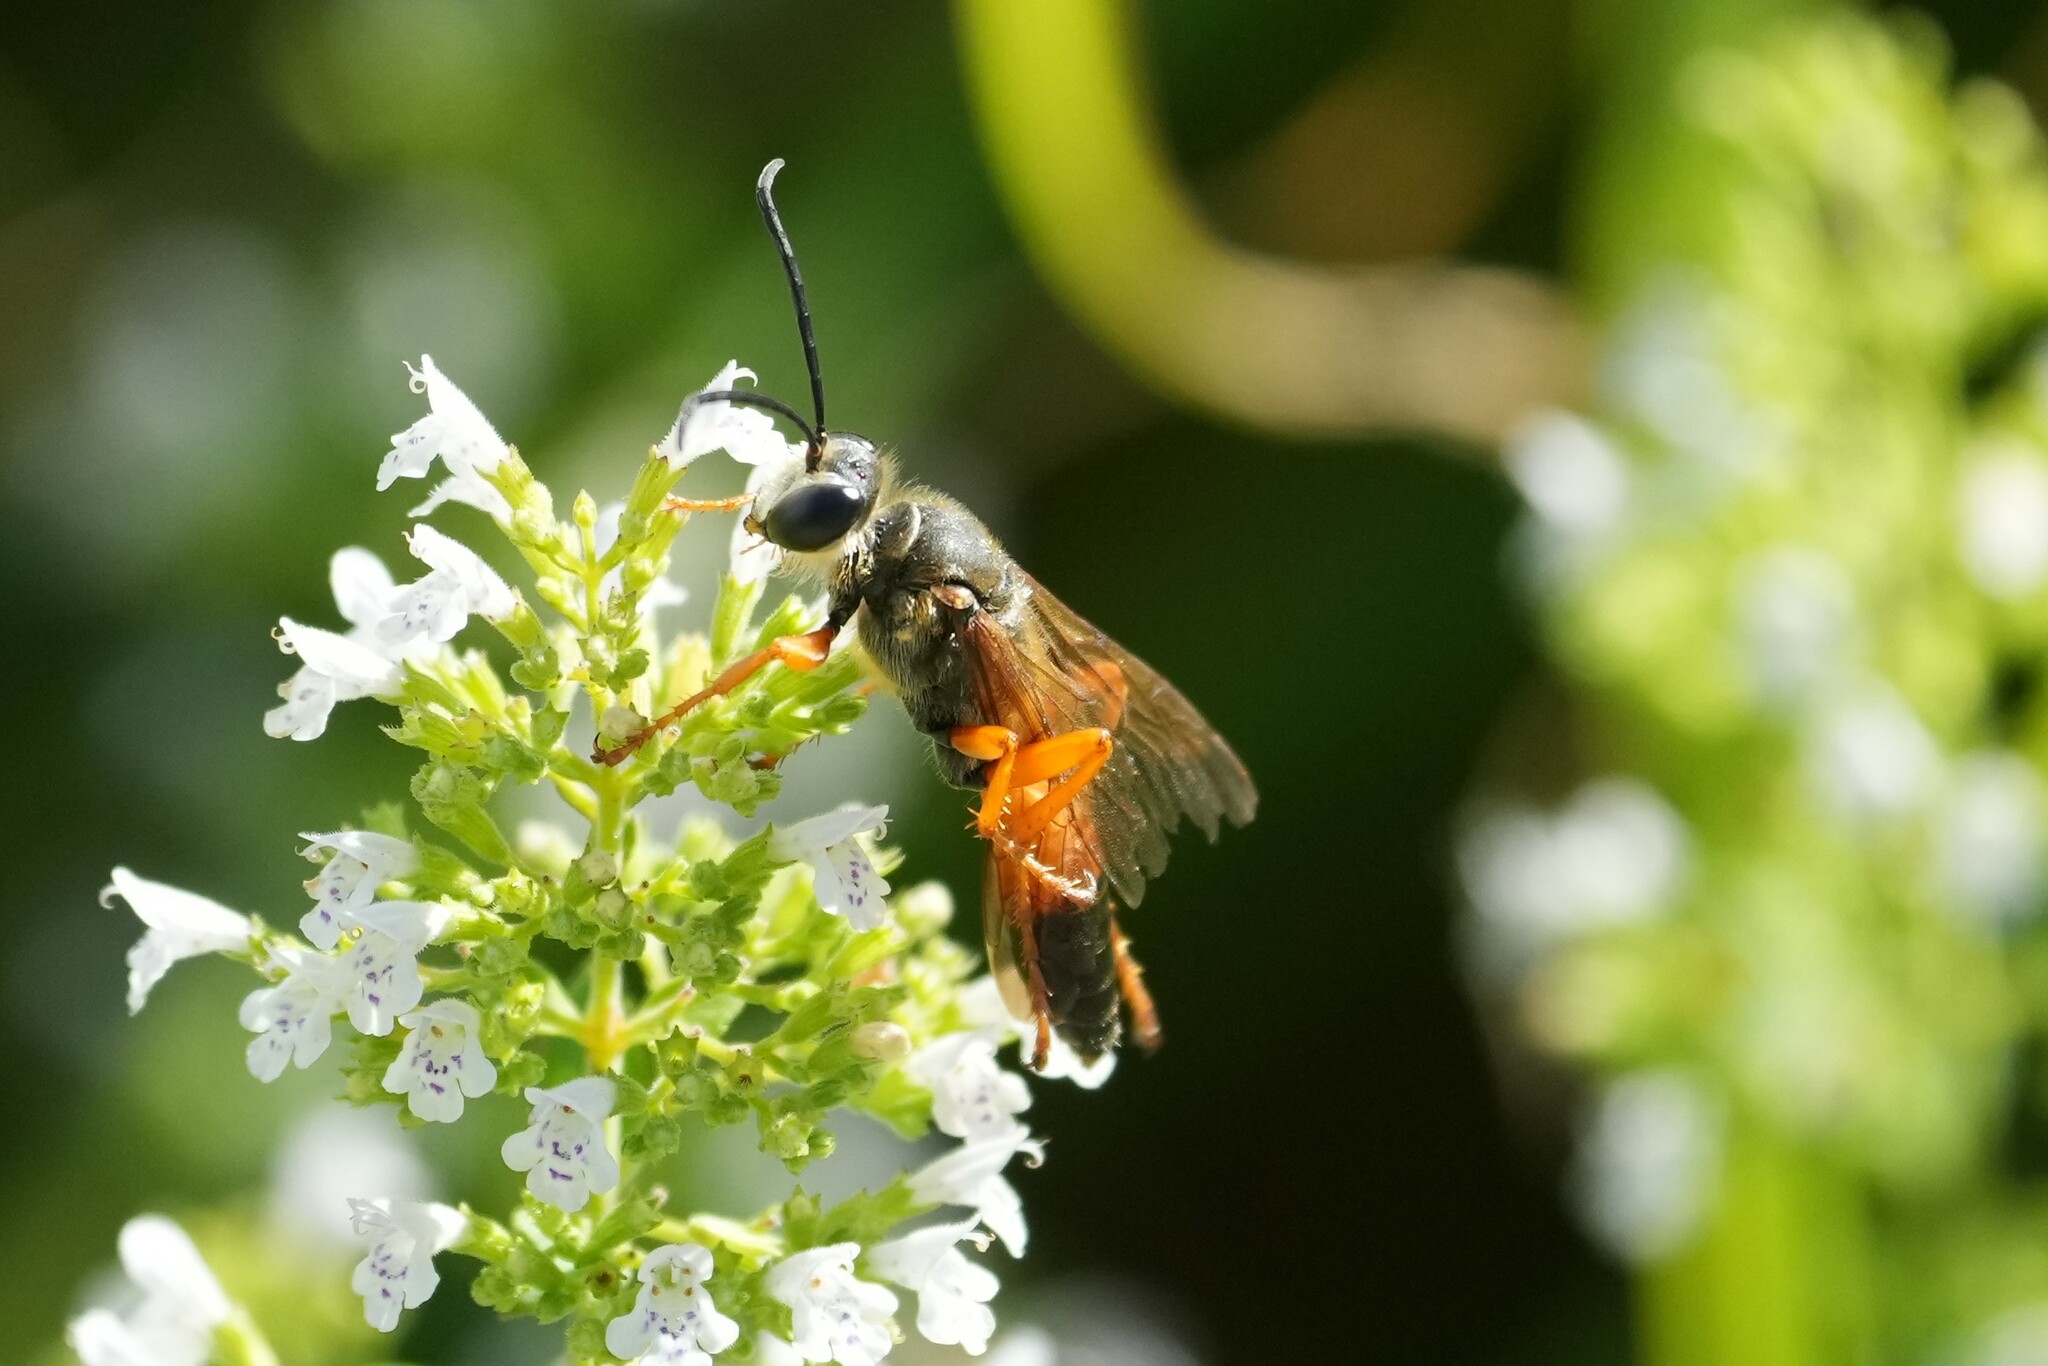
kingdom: Animalia
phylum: Arthropoda
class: Insecta
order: Hymenoptera
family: Sphecidae
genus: Sphex
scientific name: Sphex ichneumoneus
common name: Great golden digger wasp
